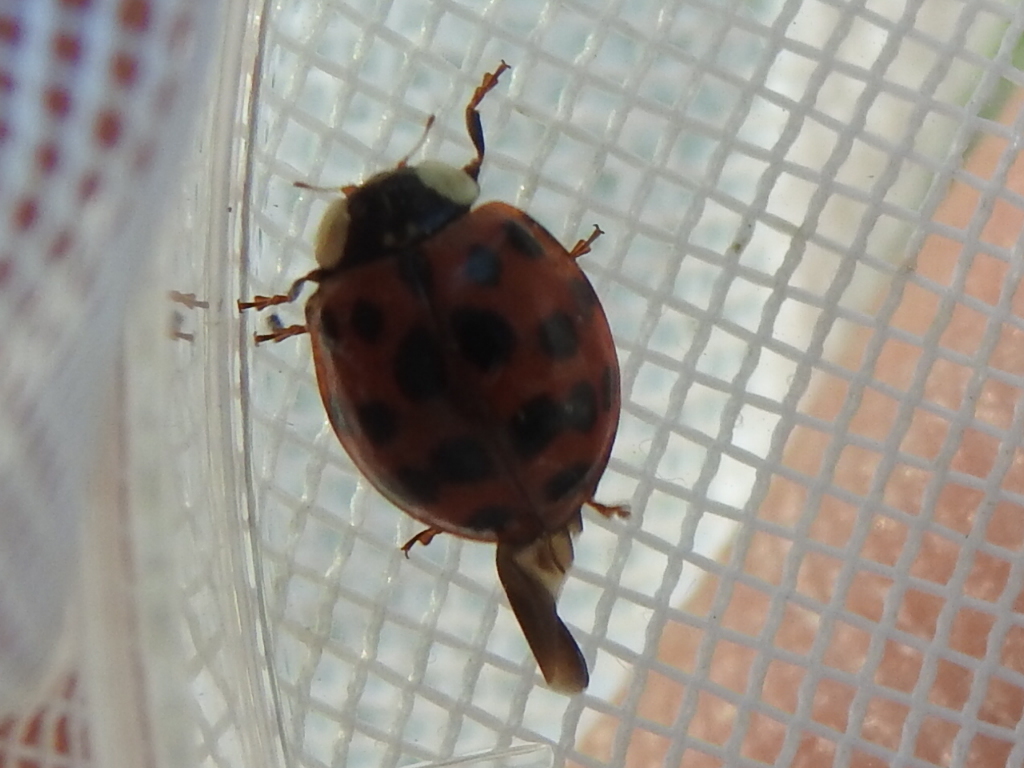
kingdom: Animalia
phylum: Arthropoda
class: Insecta
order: Coleoptera
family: Coccinellidae
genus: Harmonia
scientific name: Harmonia axyridis
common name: Harlequin ladybird
